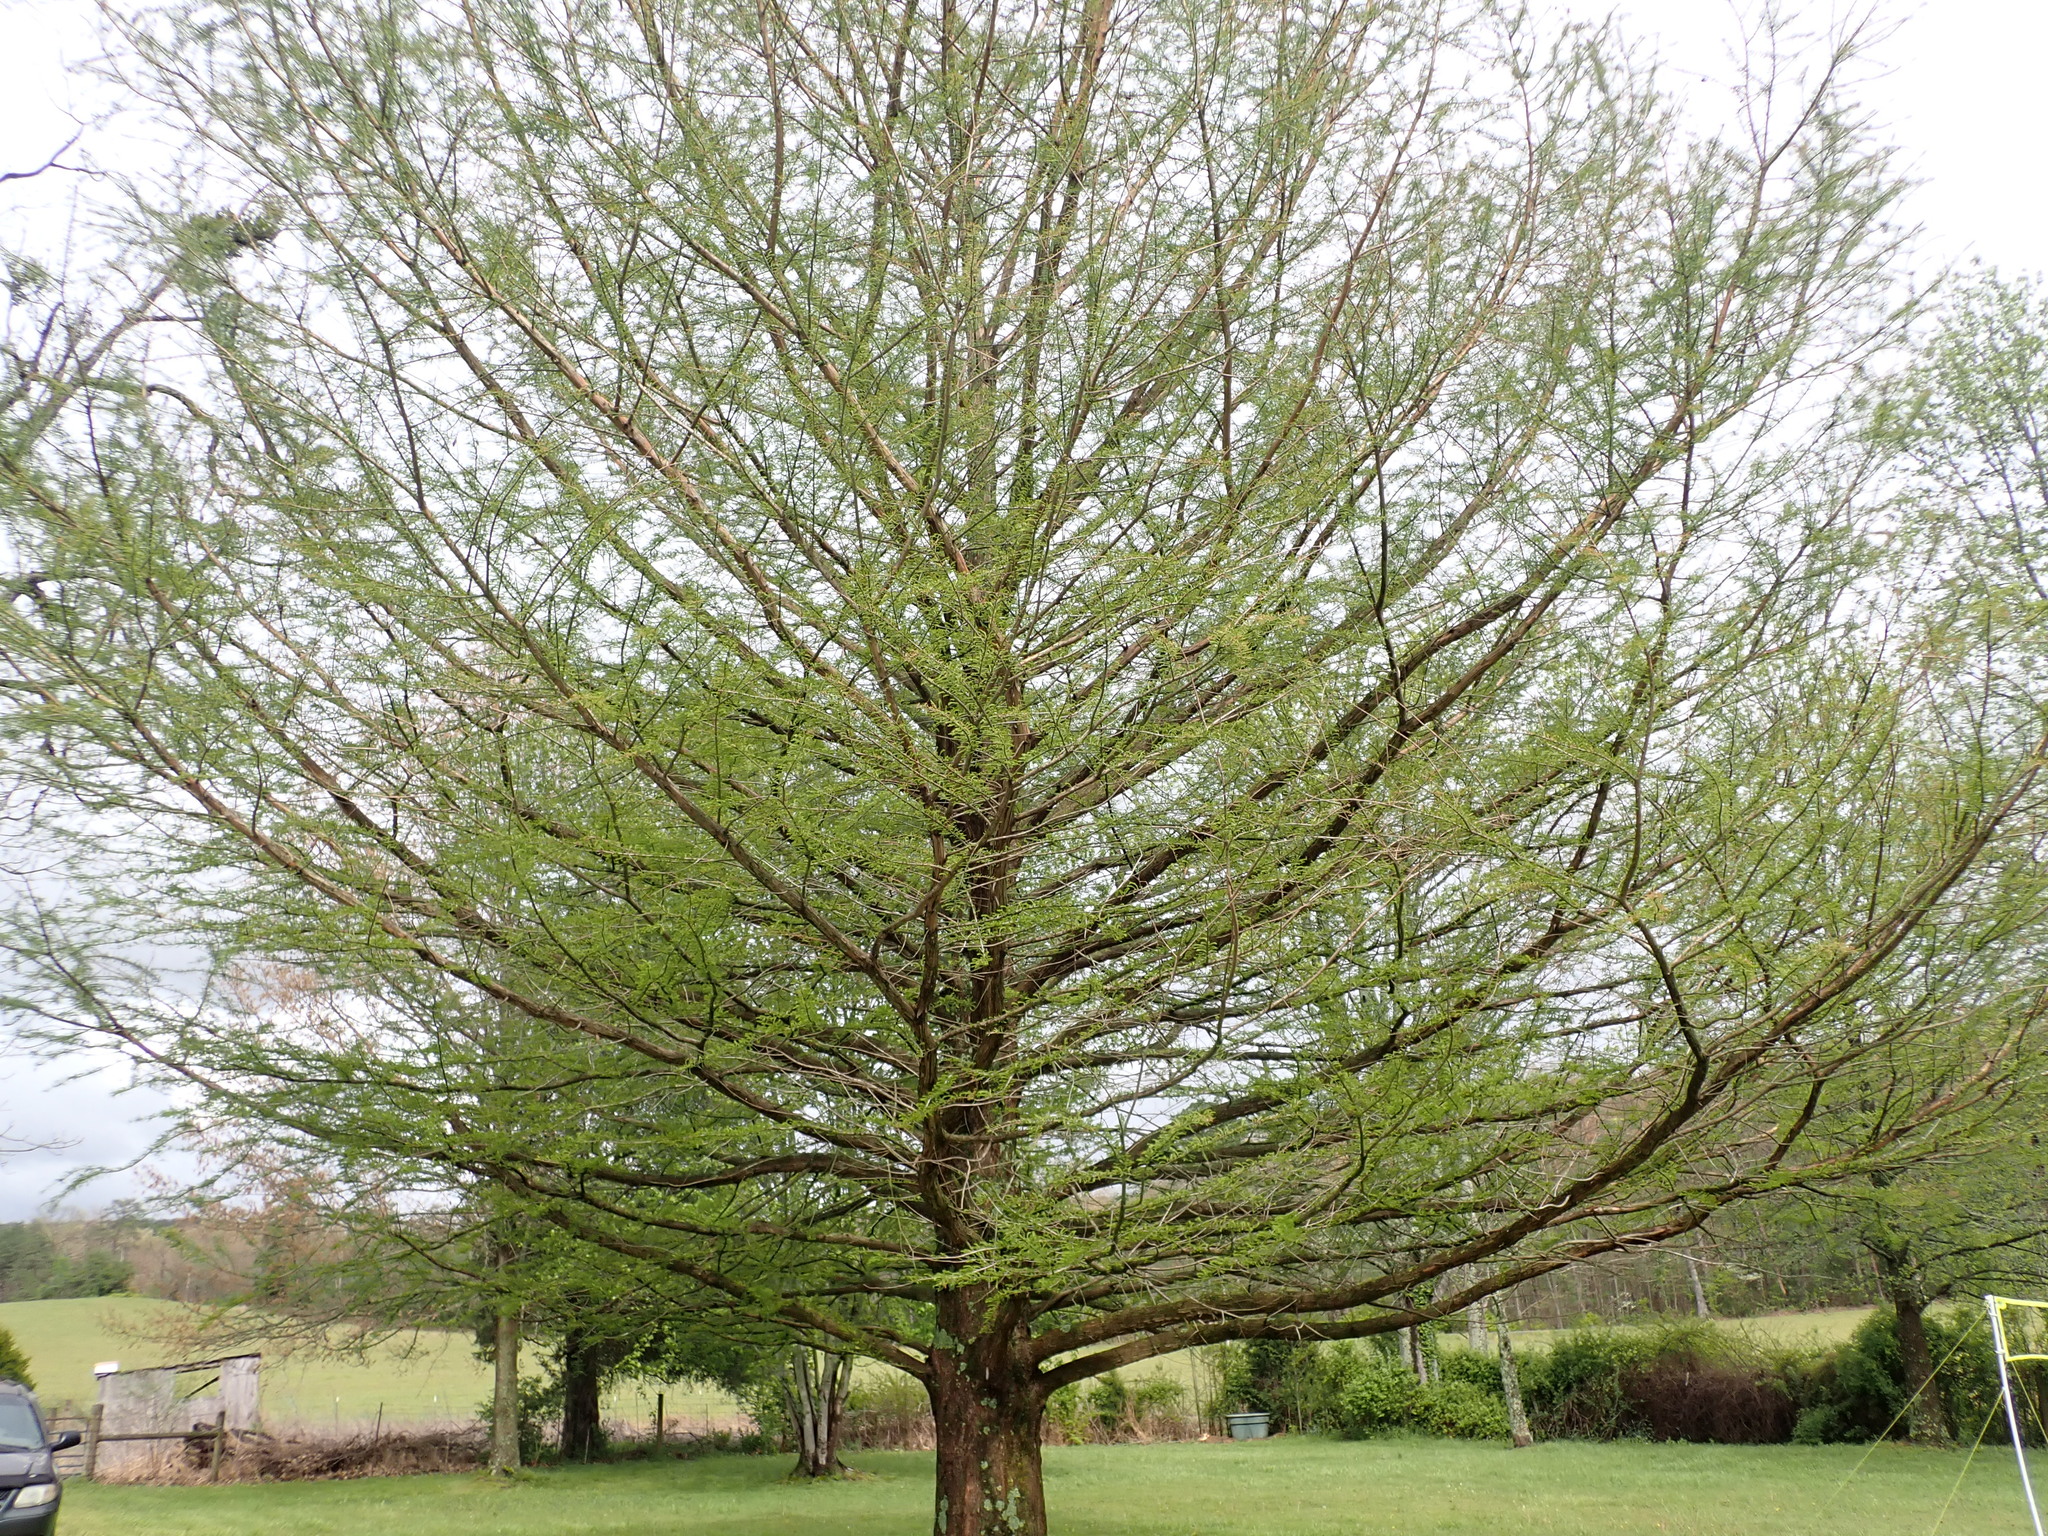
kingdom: Plantae
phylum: Tracheophyta
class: Pinopsida
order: Pinales
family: Cupressaceae
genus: Taxodium
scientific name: Taxodium distichum
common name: Bald cypress
